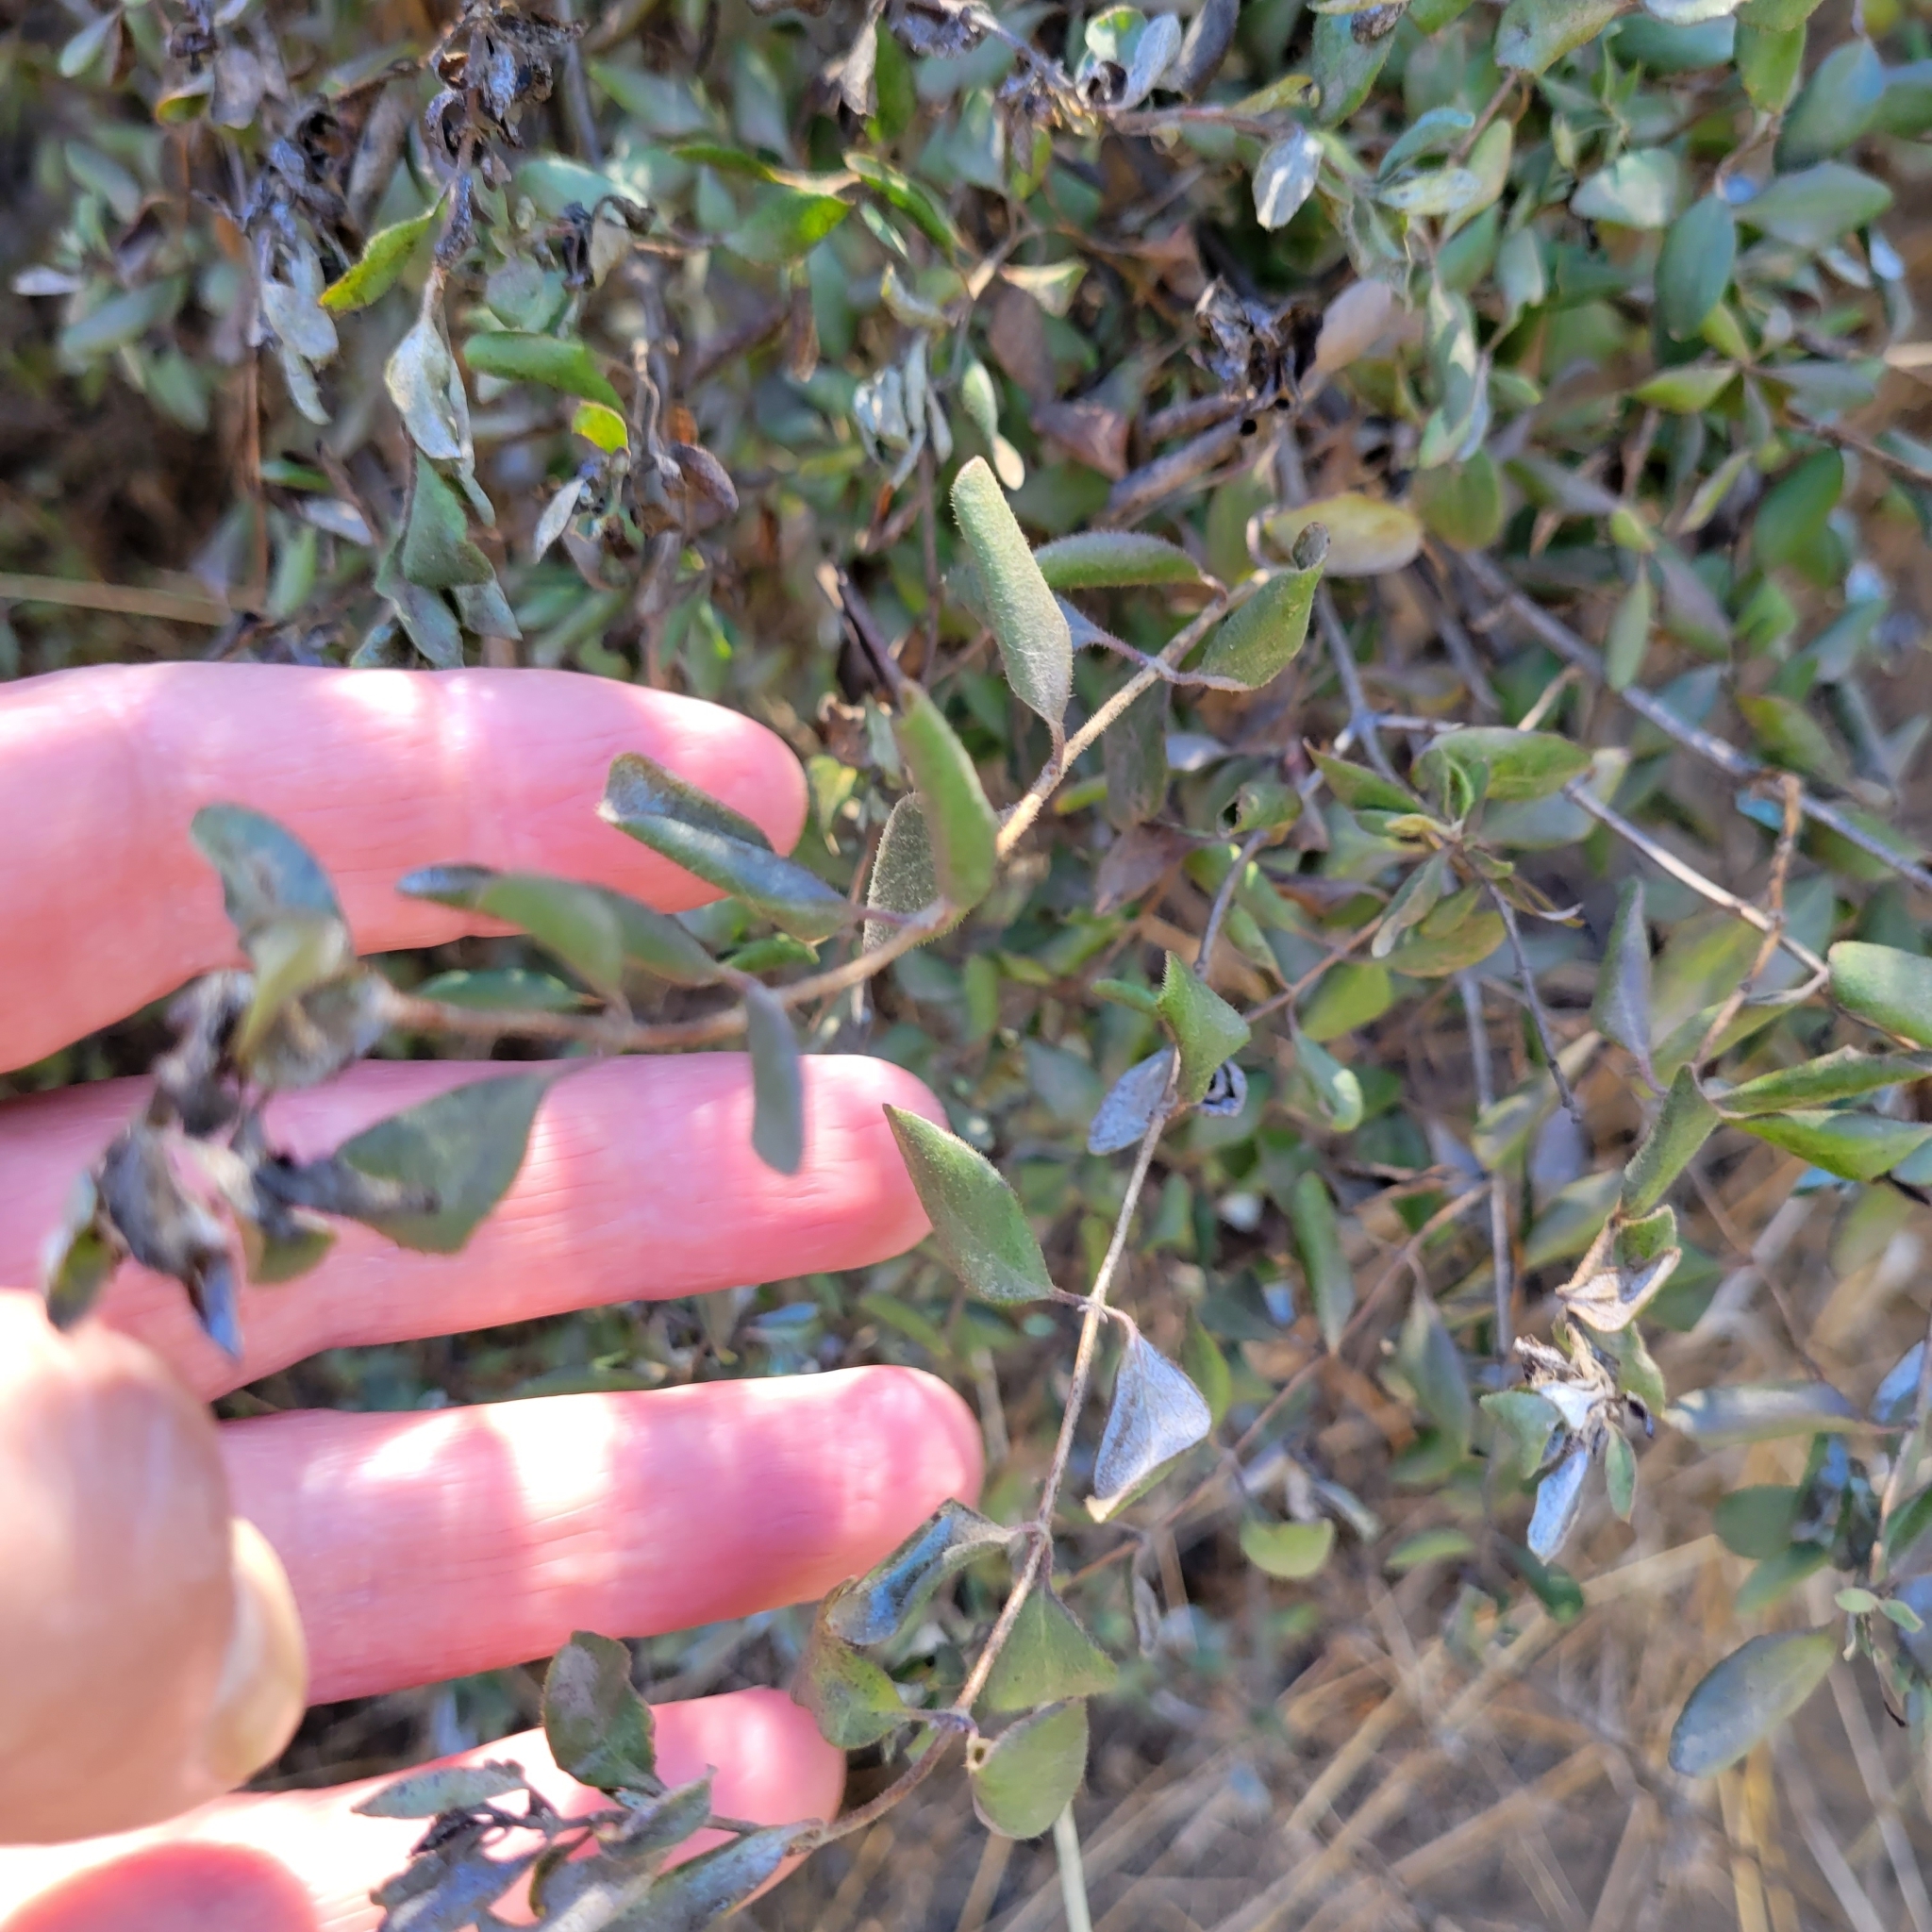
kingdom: Plantae
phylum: Tracheophyta
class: Magnoliopsida
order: Dipsacales
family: Caprifoliaceae
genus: Lonicera
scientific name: Lonicera subspicata
